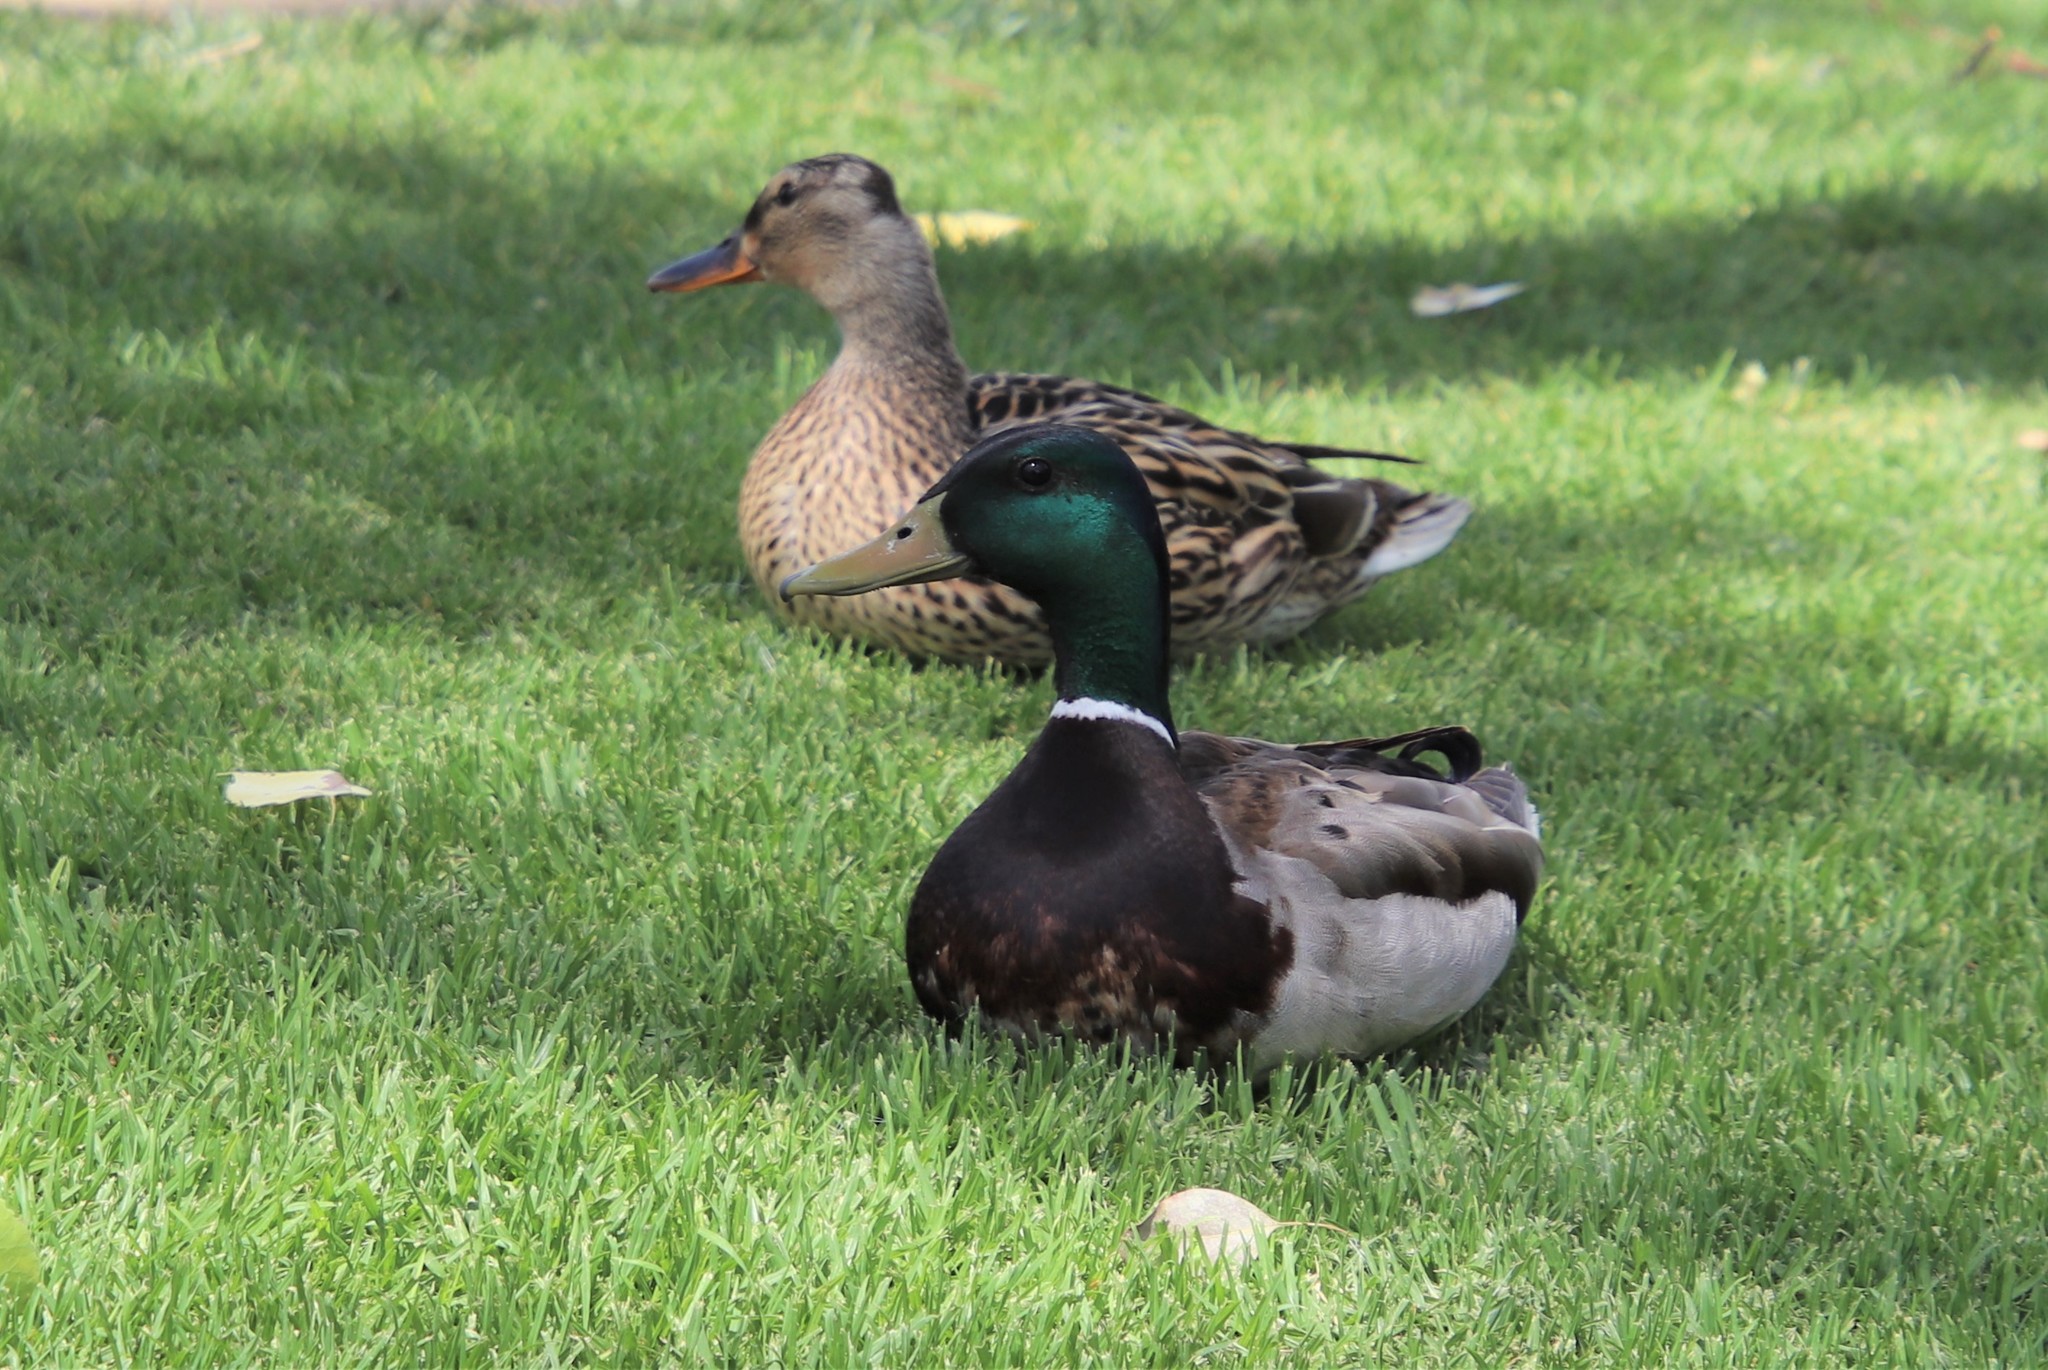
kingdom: Animalia
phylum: Chordata
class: Aves
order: Anseriformes
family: Anatidae
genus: Anas
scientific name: Anas platyrhynchos
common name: Mallard
